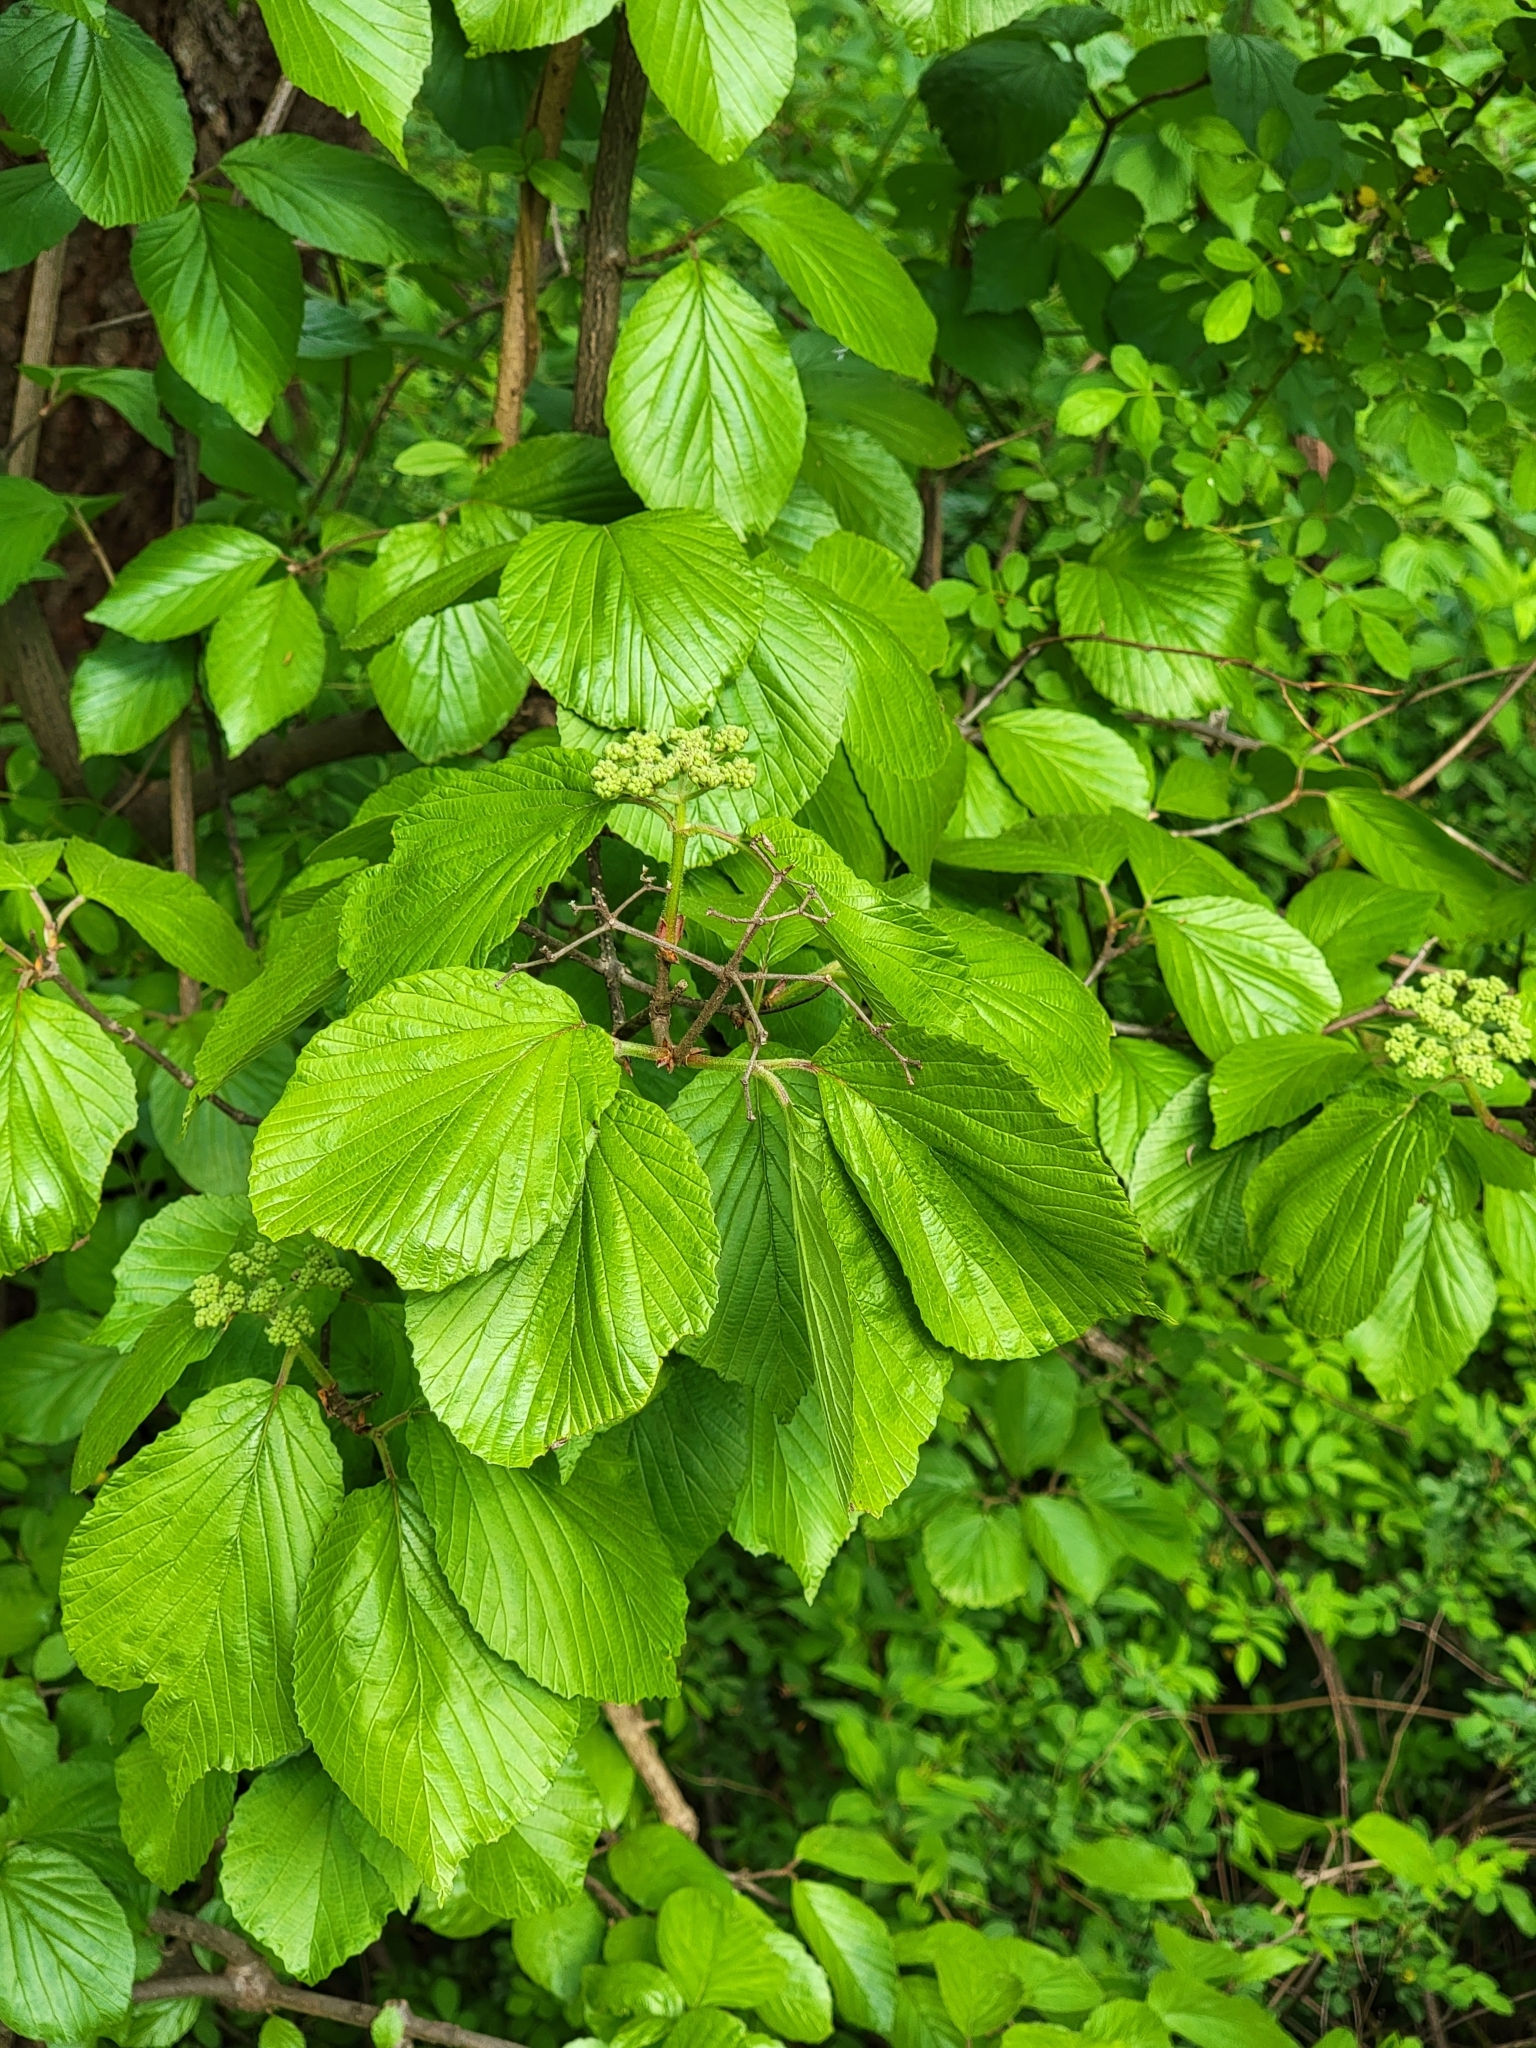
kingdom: Plantae
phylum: Tracheophyta
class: Magnoliopsida
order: Dipsacales
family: Viburnaceae
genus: Viburnum
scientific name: Viburnum dilatatum
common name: Linden arrowwood
